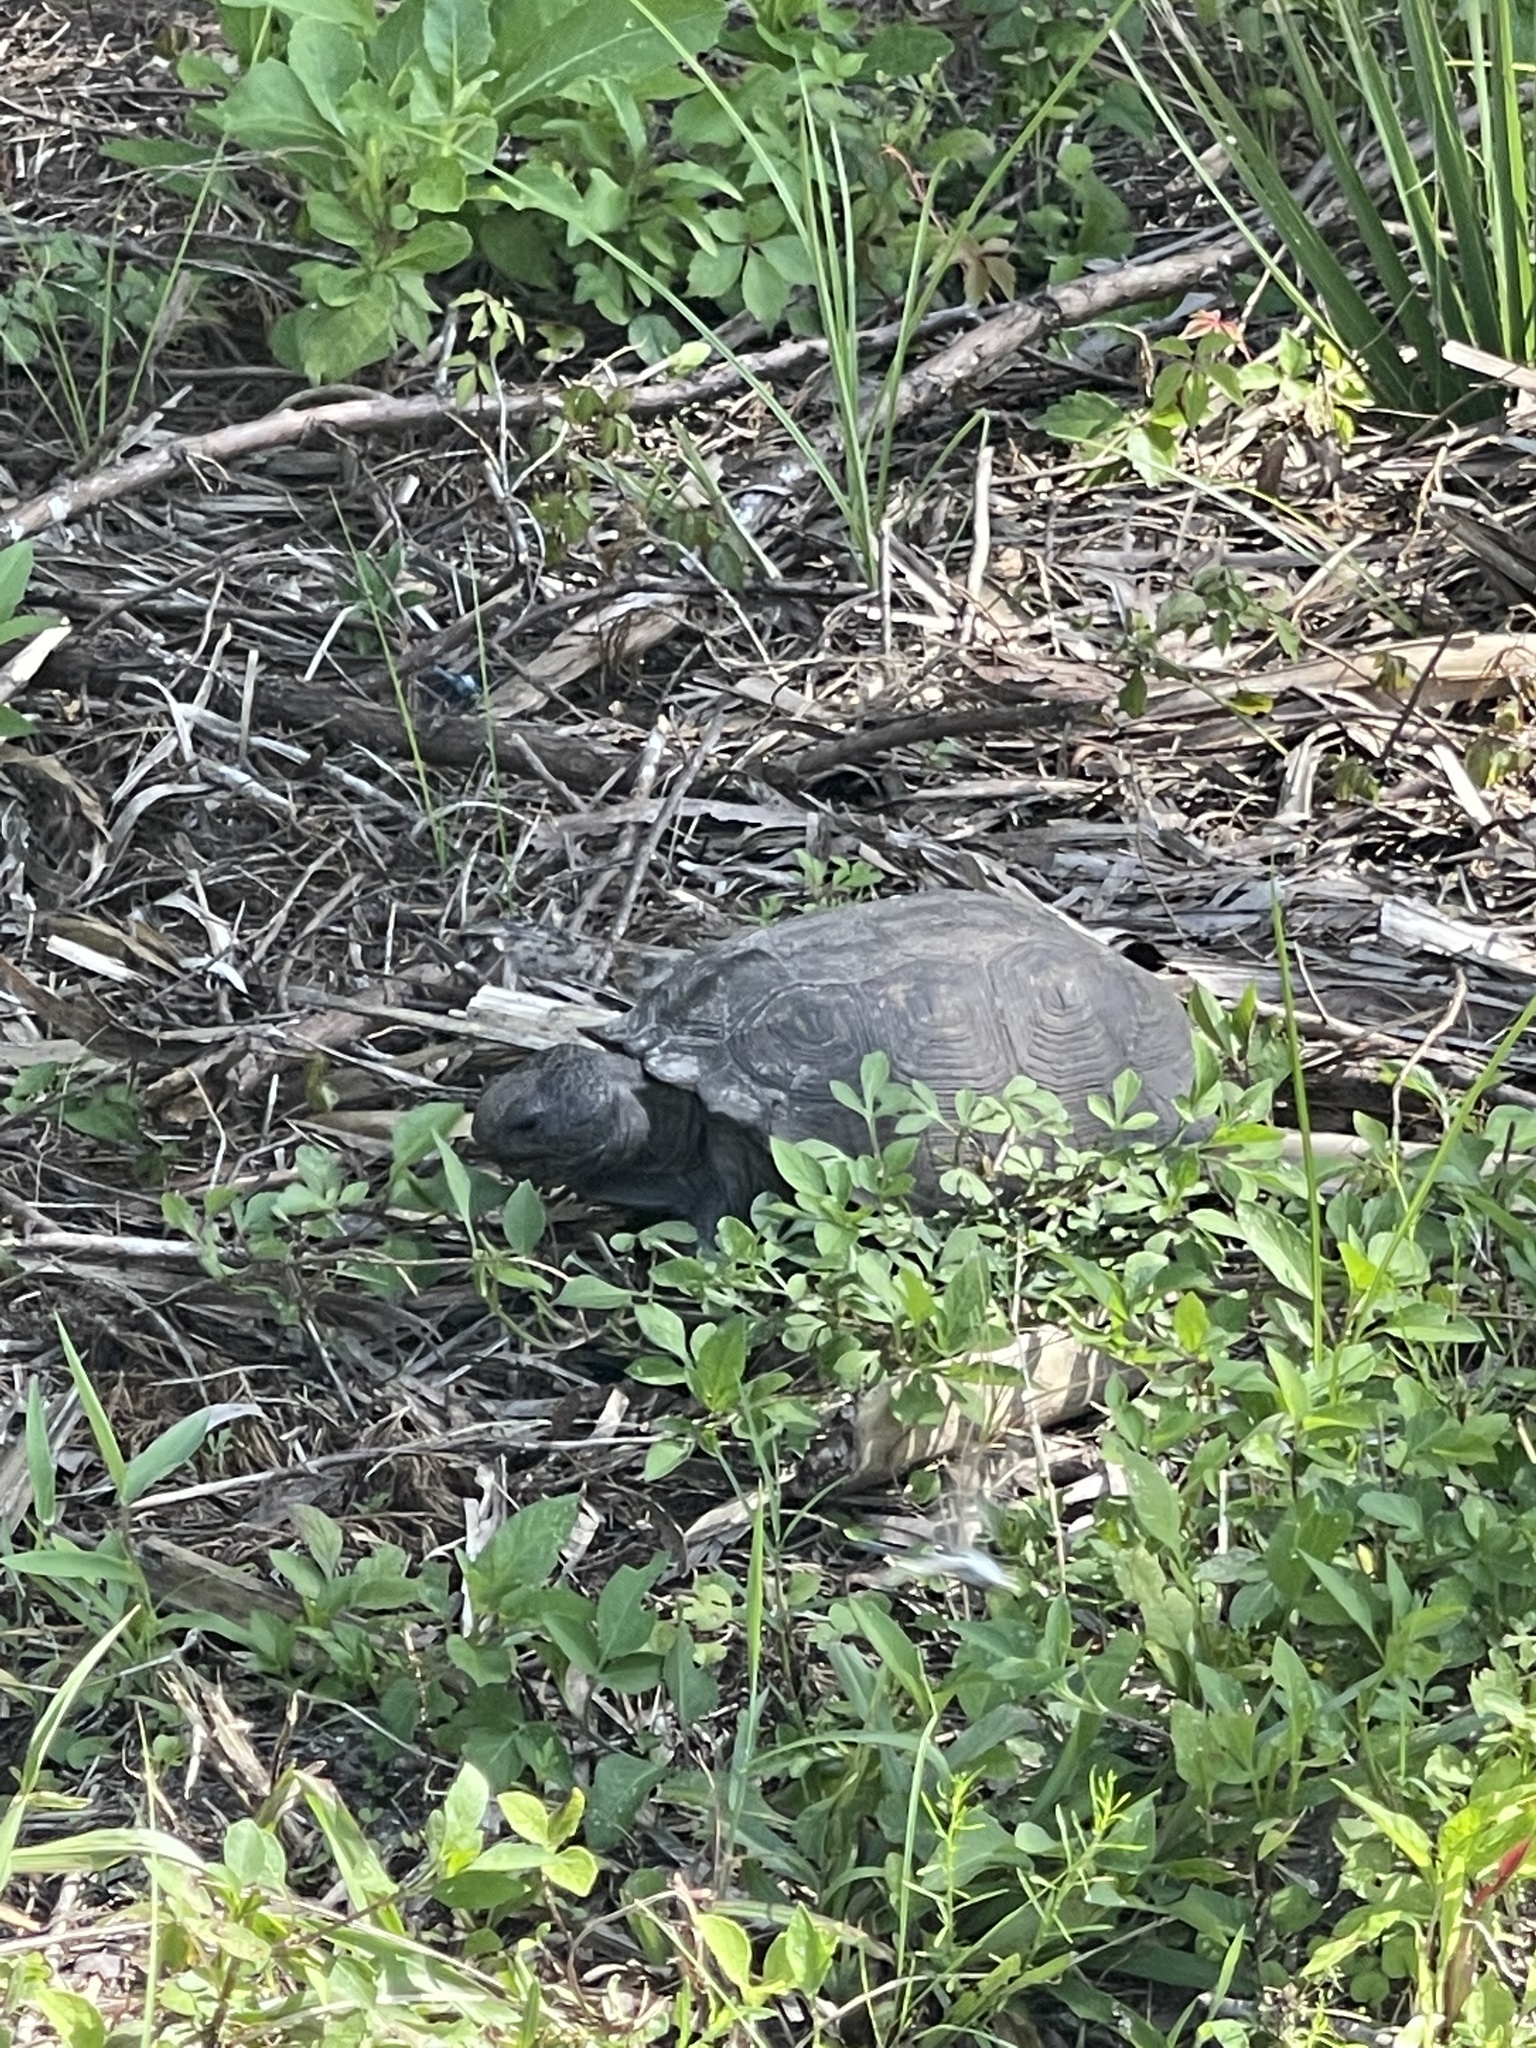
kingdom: Animalia
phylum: Chordata
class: Testudines
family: Testudinidae
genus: Gopherus
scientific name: Gopherus polyphemus
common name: Florida gopher tortoise
